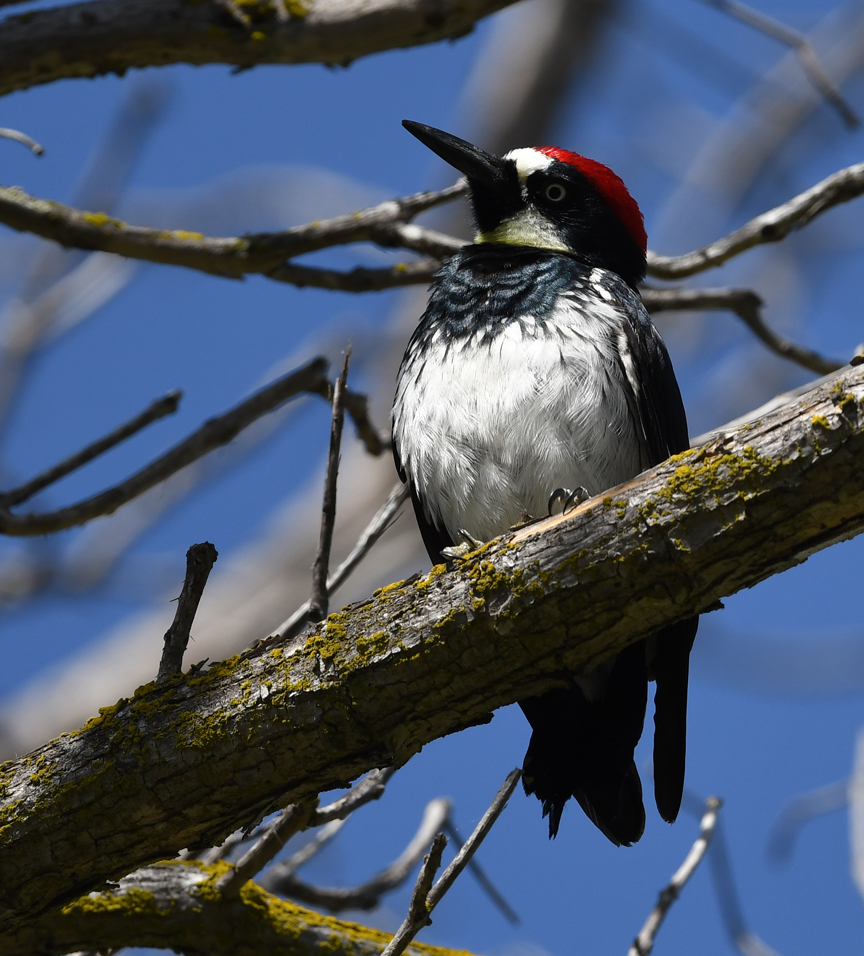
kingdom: Animalia
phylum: Chordata
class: Aves
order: Piciformes
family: Picidae
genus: Melanerpes
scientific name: Melanerpes formicivorus
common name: Acorn woodpecker
